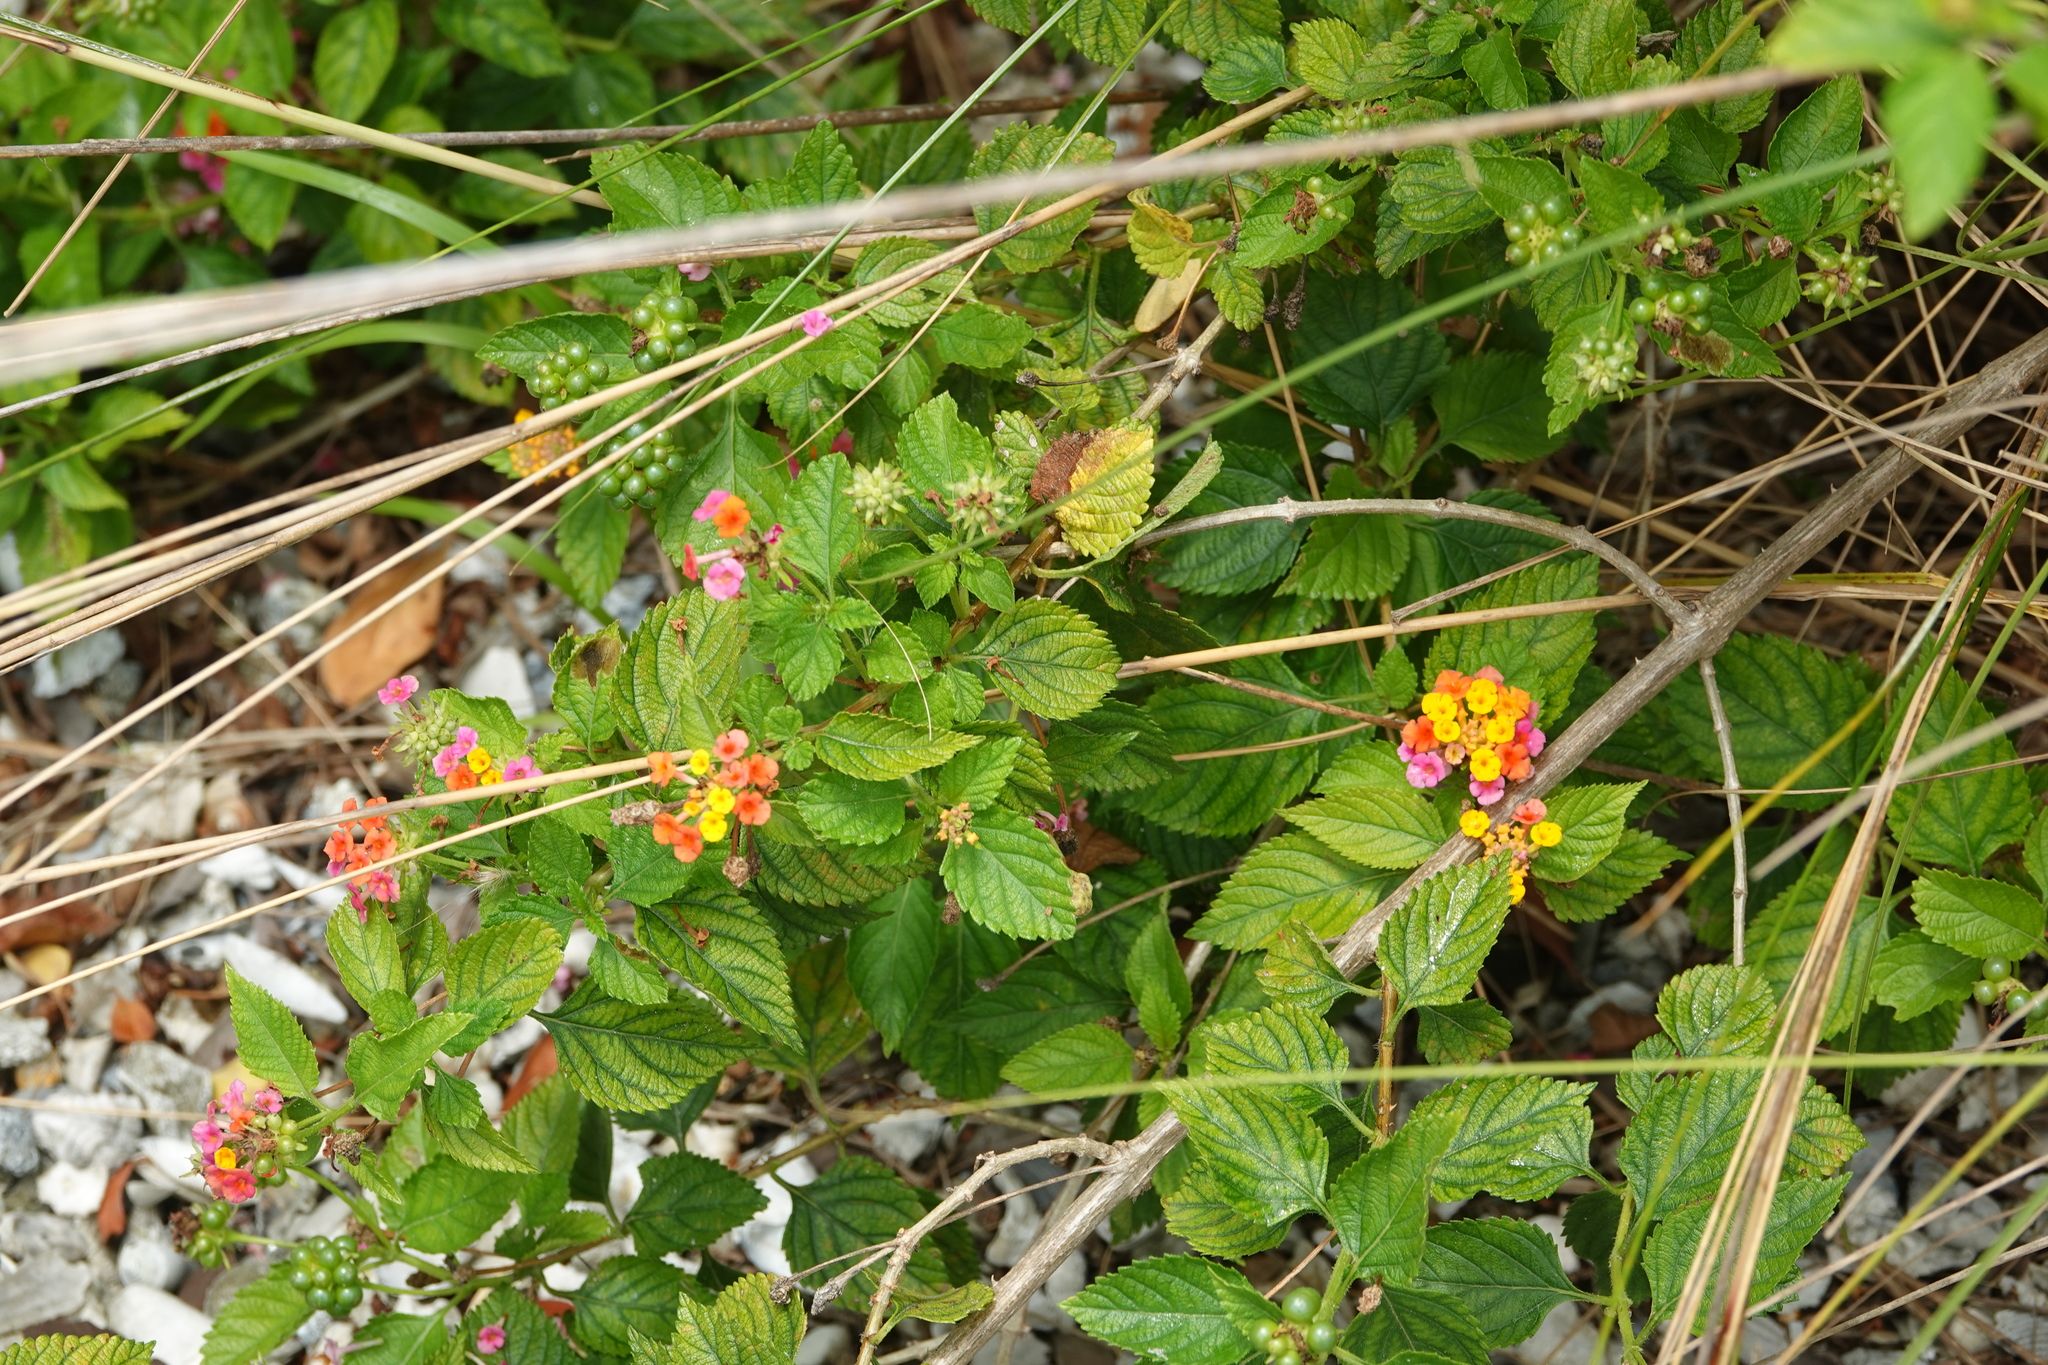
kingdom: Plantae
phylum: Tracheophyta
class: Magnoliopsida
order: Lamiales
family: Verbenaceae
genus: Lantana
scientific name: Lantana camara
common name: Lantana
